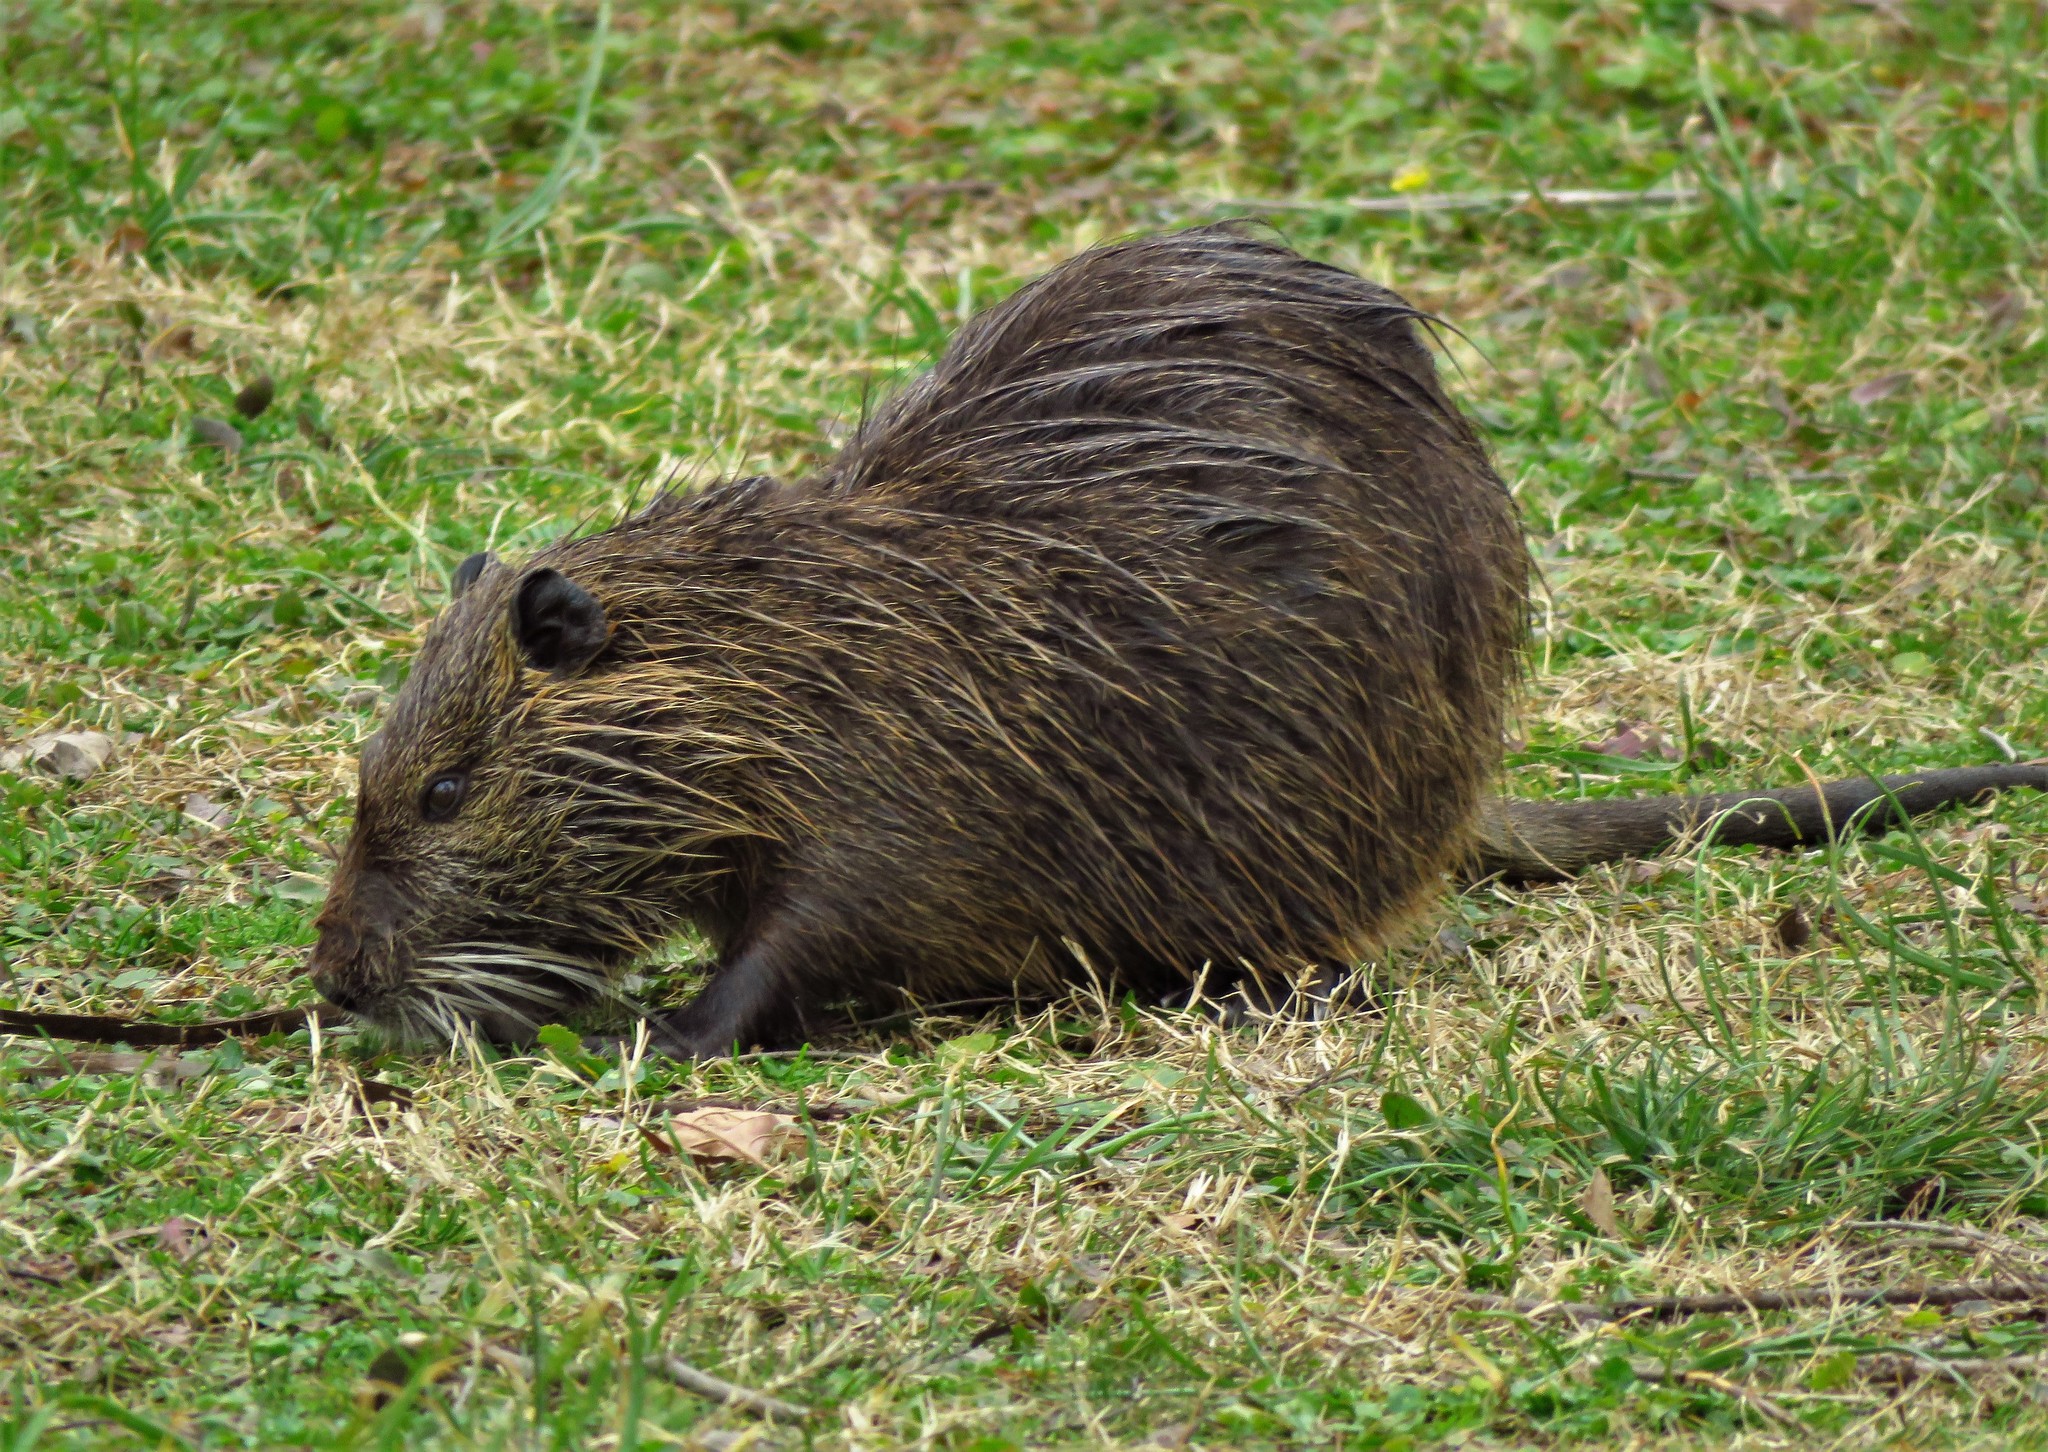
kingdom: Animalia
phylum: Chordata
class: Mammalia
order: Rodentia
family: Myocastoridae
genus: Myocastor
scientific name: Myocastor coypus
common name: Coypu
